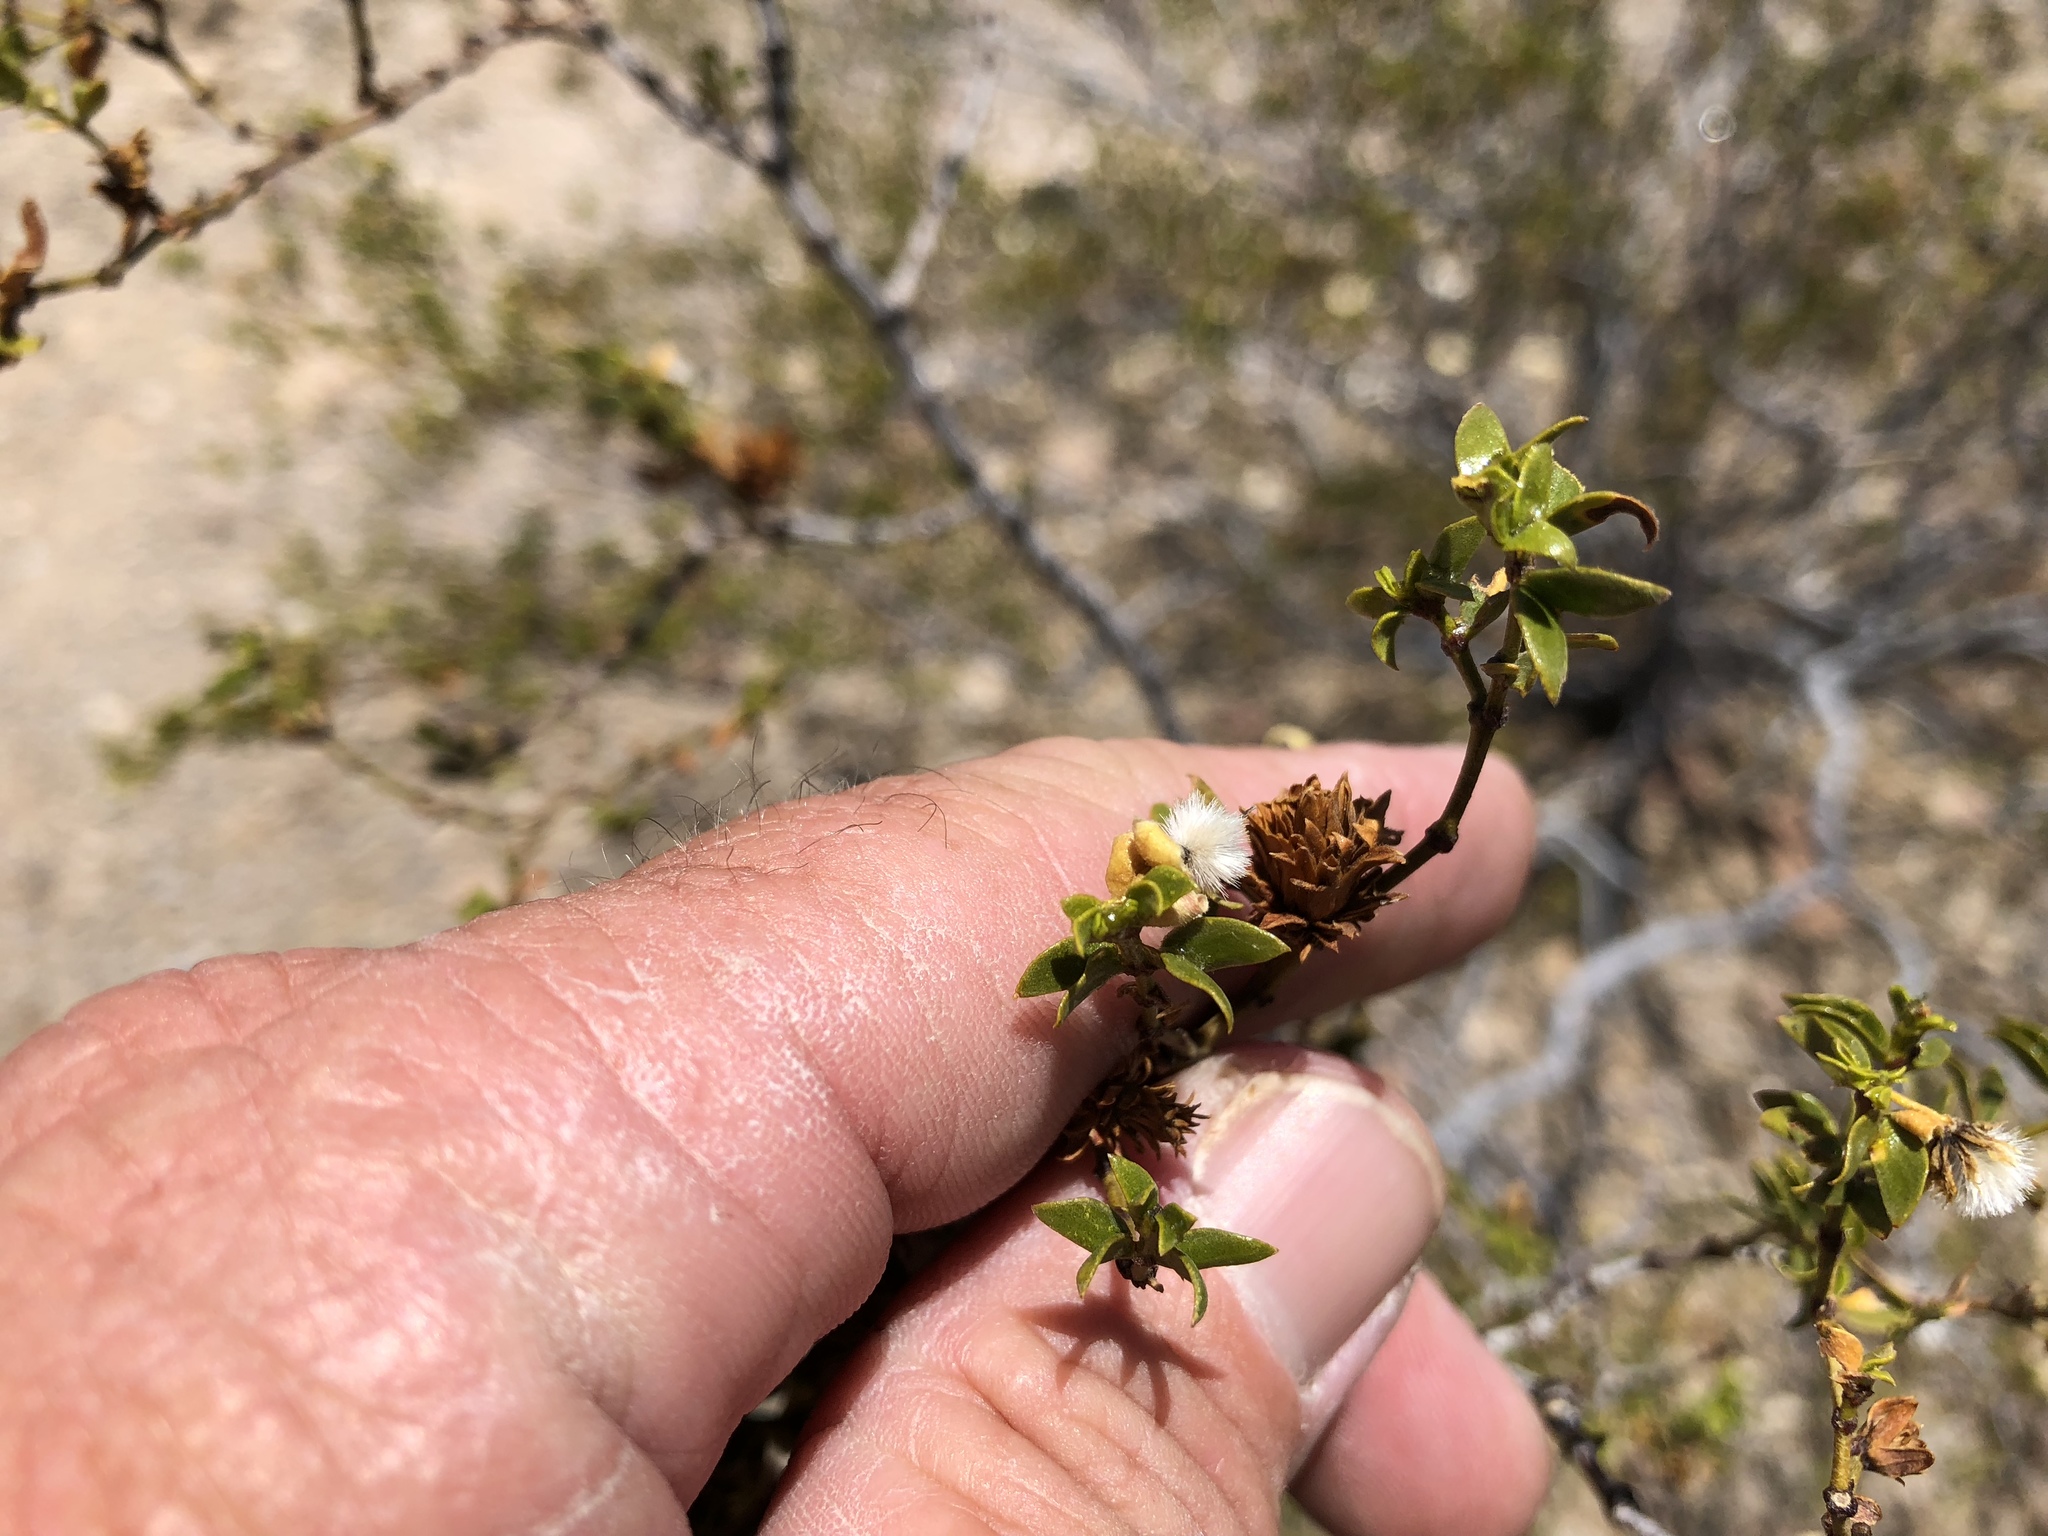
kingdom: Animalia
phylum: Arthropoda
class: Insecta
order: Diptera
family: Cecidomyiidae
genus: Asphondylia
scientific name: Asphondylia auripila
